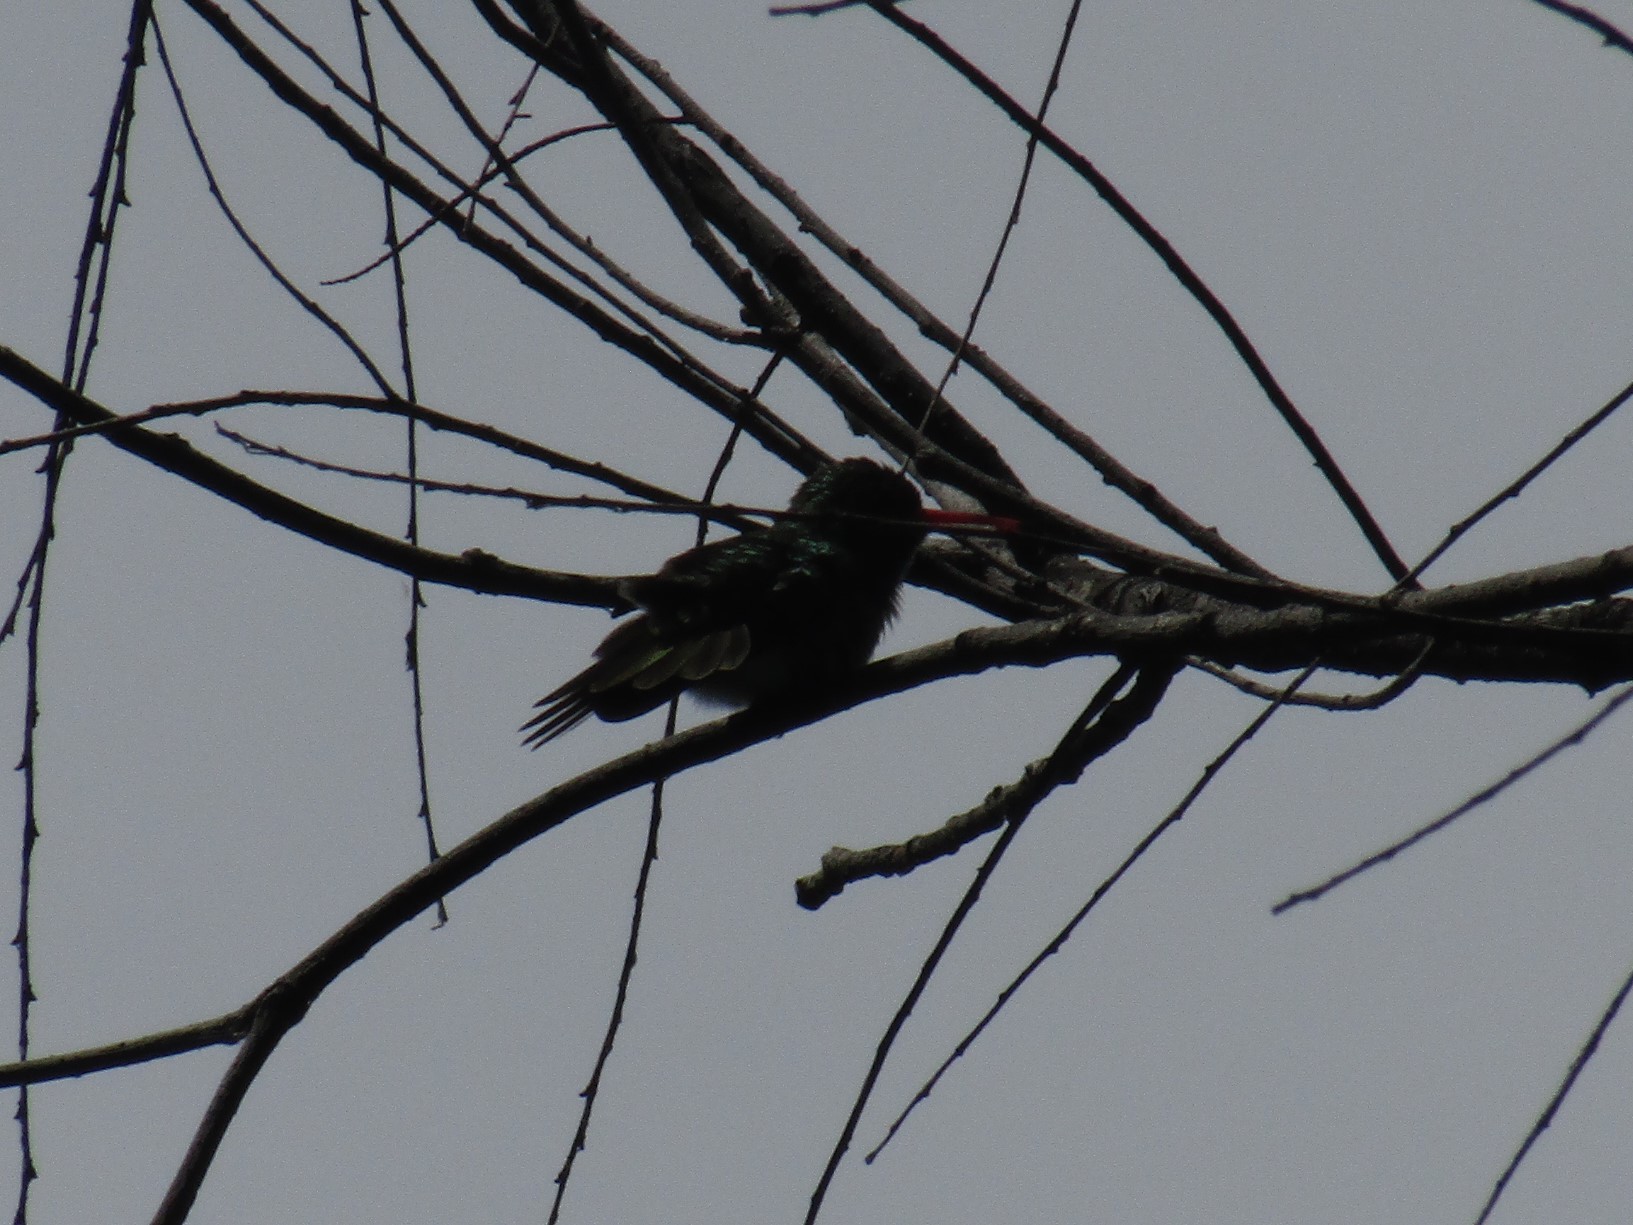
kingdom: Animalia
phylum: Chordata
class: Aves
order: Apodiformes
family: Trochilidae
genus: Chlorostilbon
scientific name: Chlorostilbon lucidus
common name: Glittering-bellied emerald
